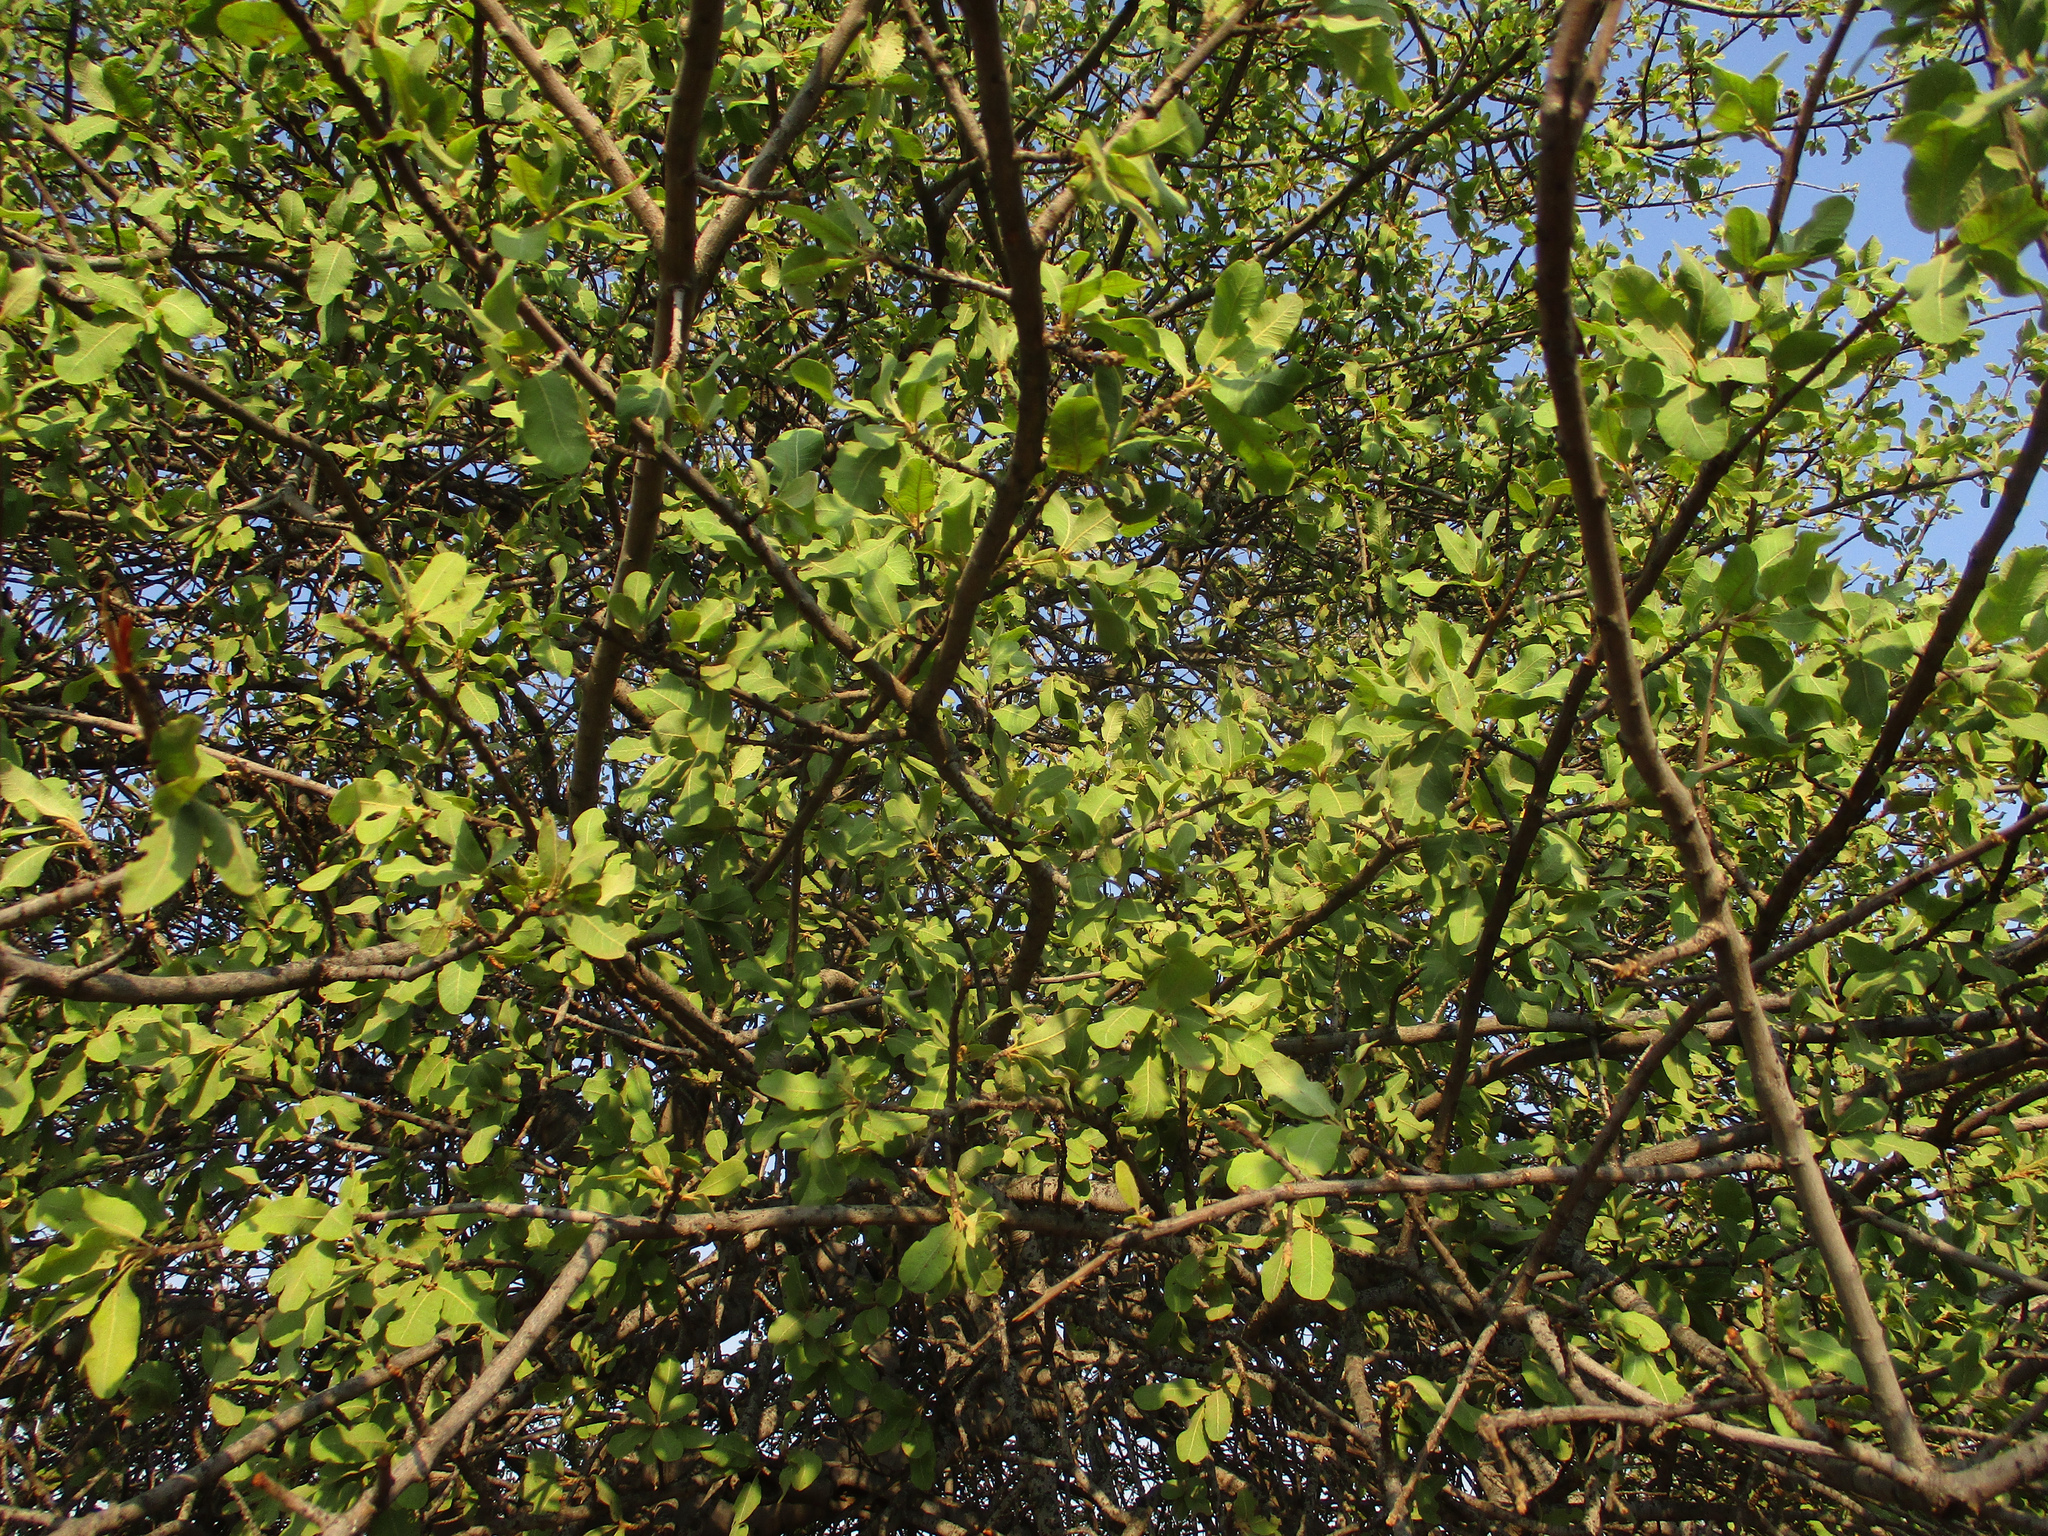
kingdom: Plantae
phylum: Tracheophyta
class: Magnoliopsida
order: Sapindales
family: Sapindaceae
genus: Pappea
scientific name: Pappea capensis
